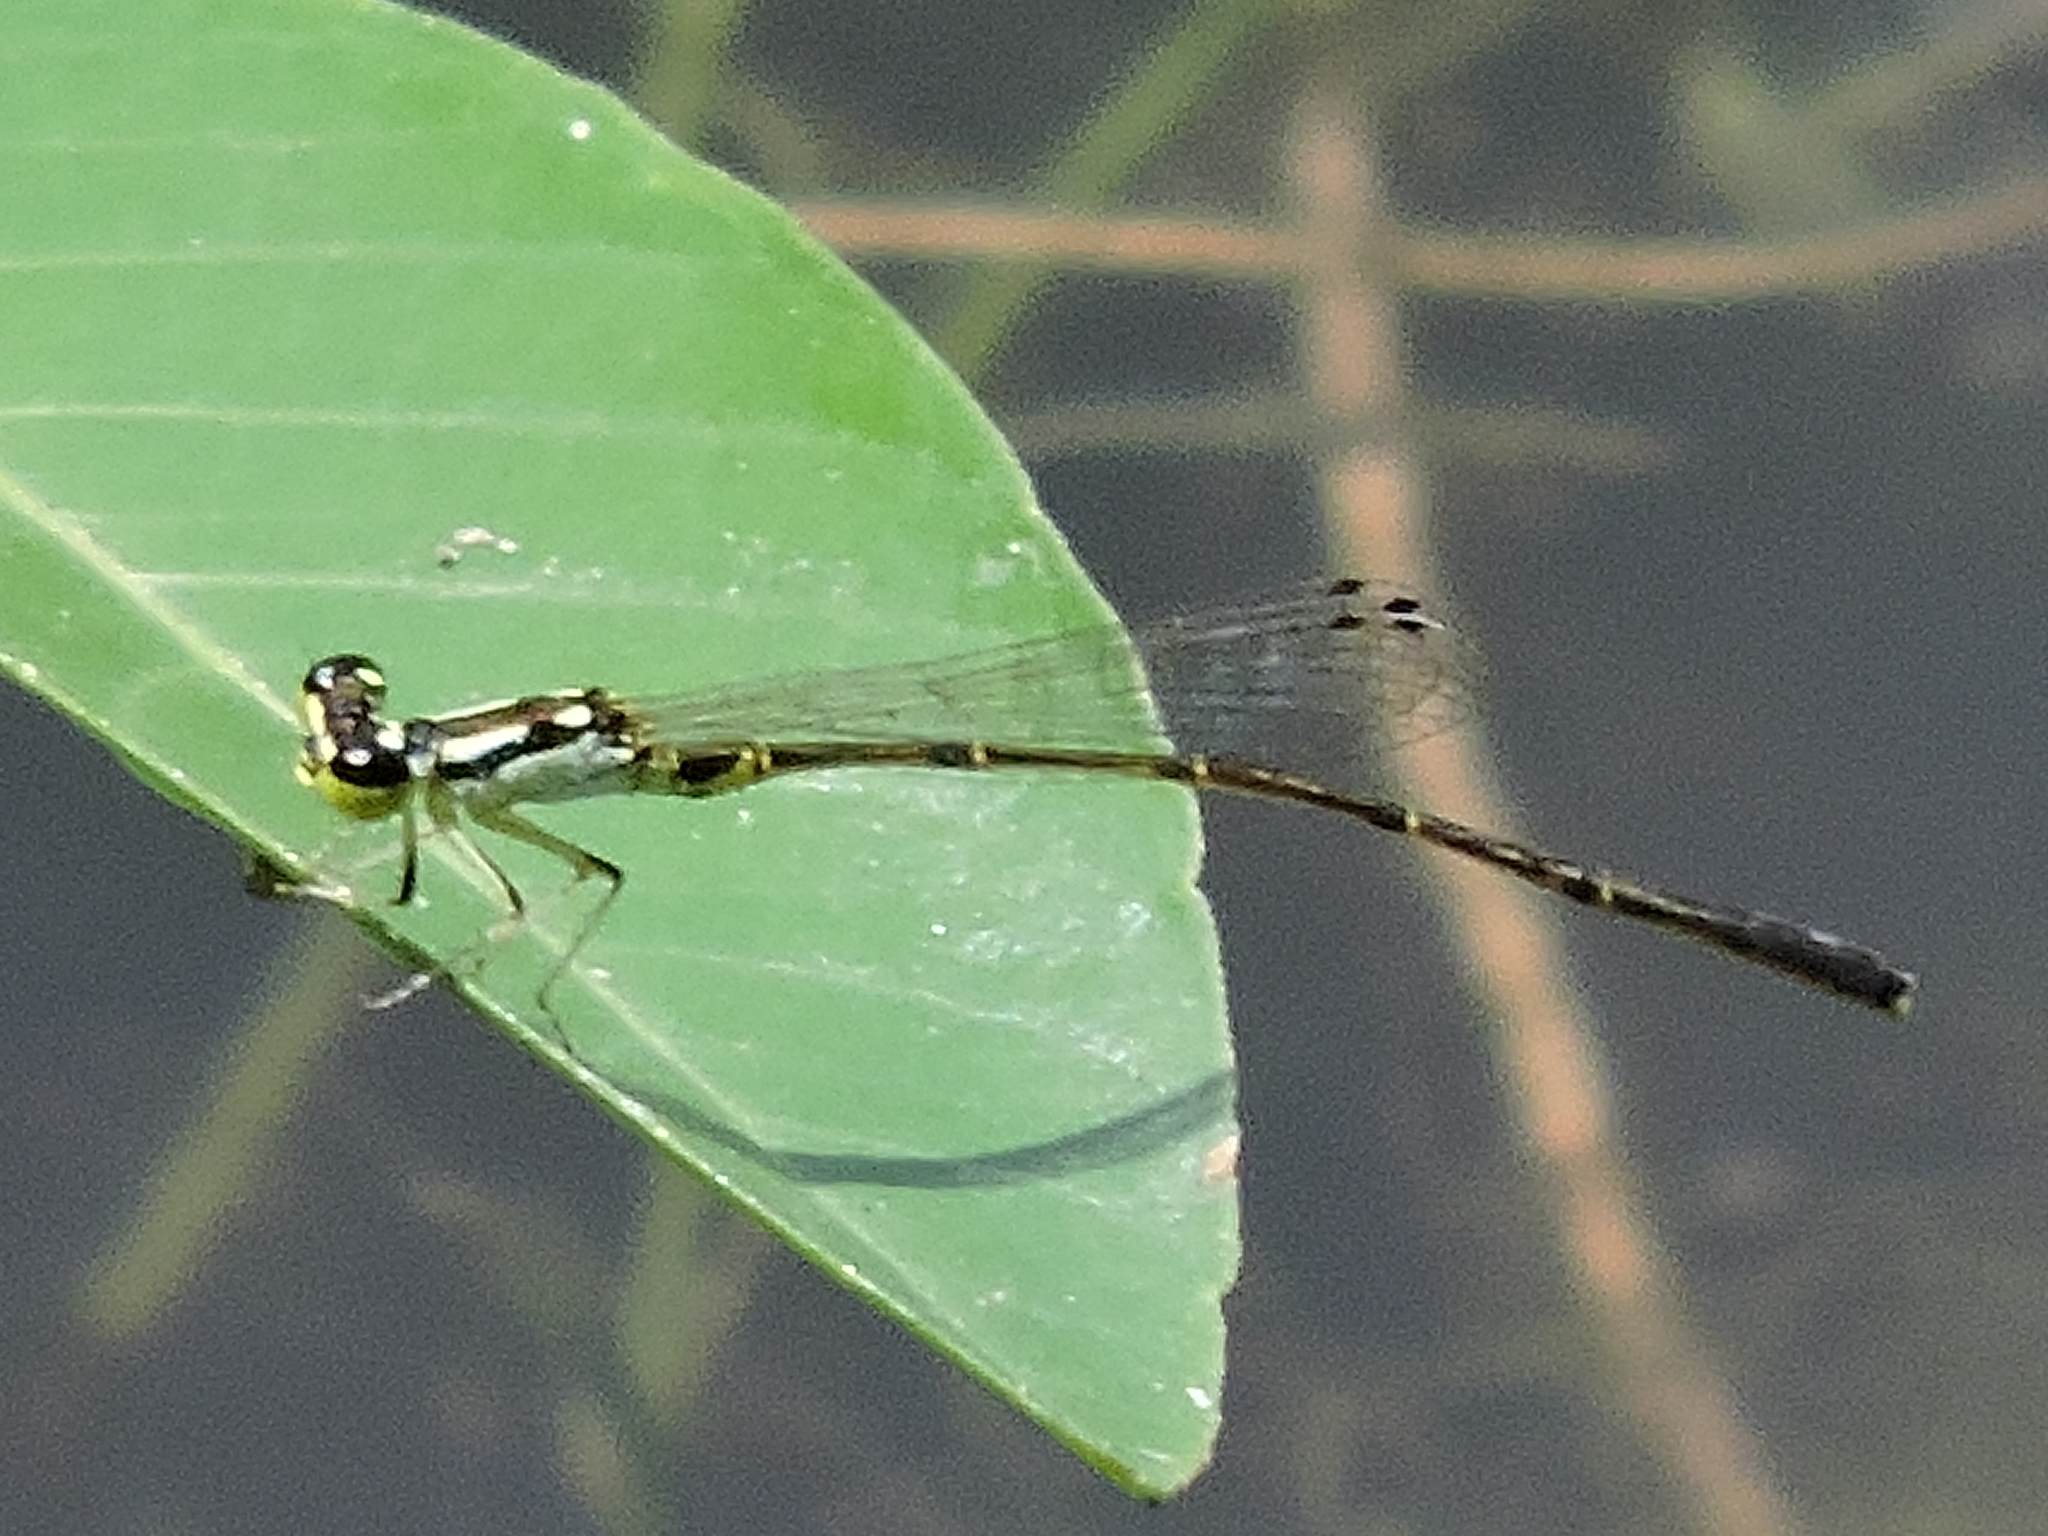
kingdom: Animalia
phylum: Arthropoda
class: Insecta
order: Odonata
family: Coenagrionidae
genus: Ischnura
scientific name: Ischnura posita
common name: Fragile forktail
